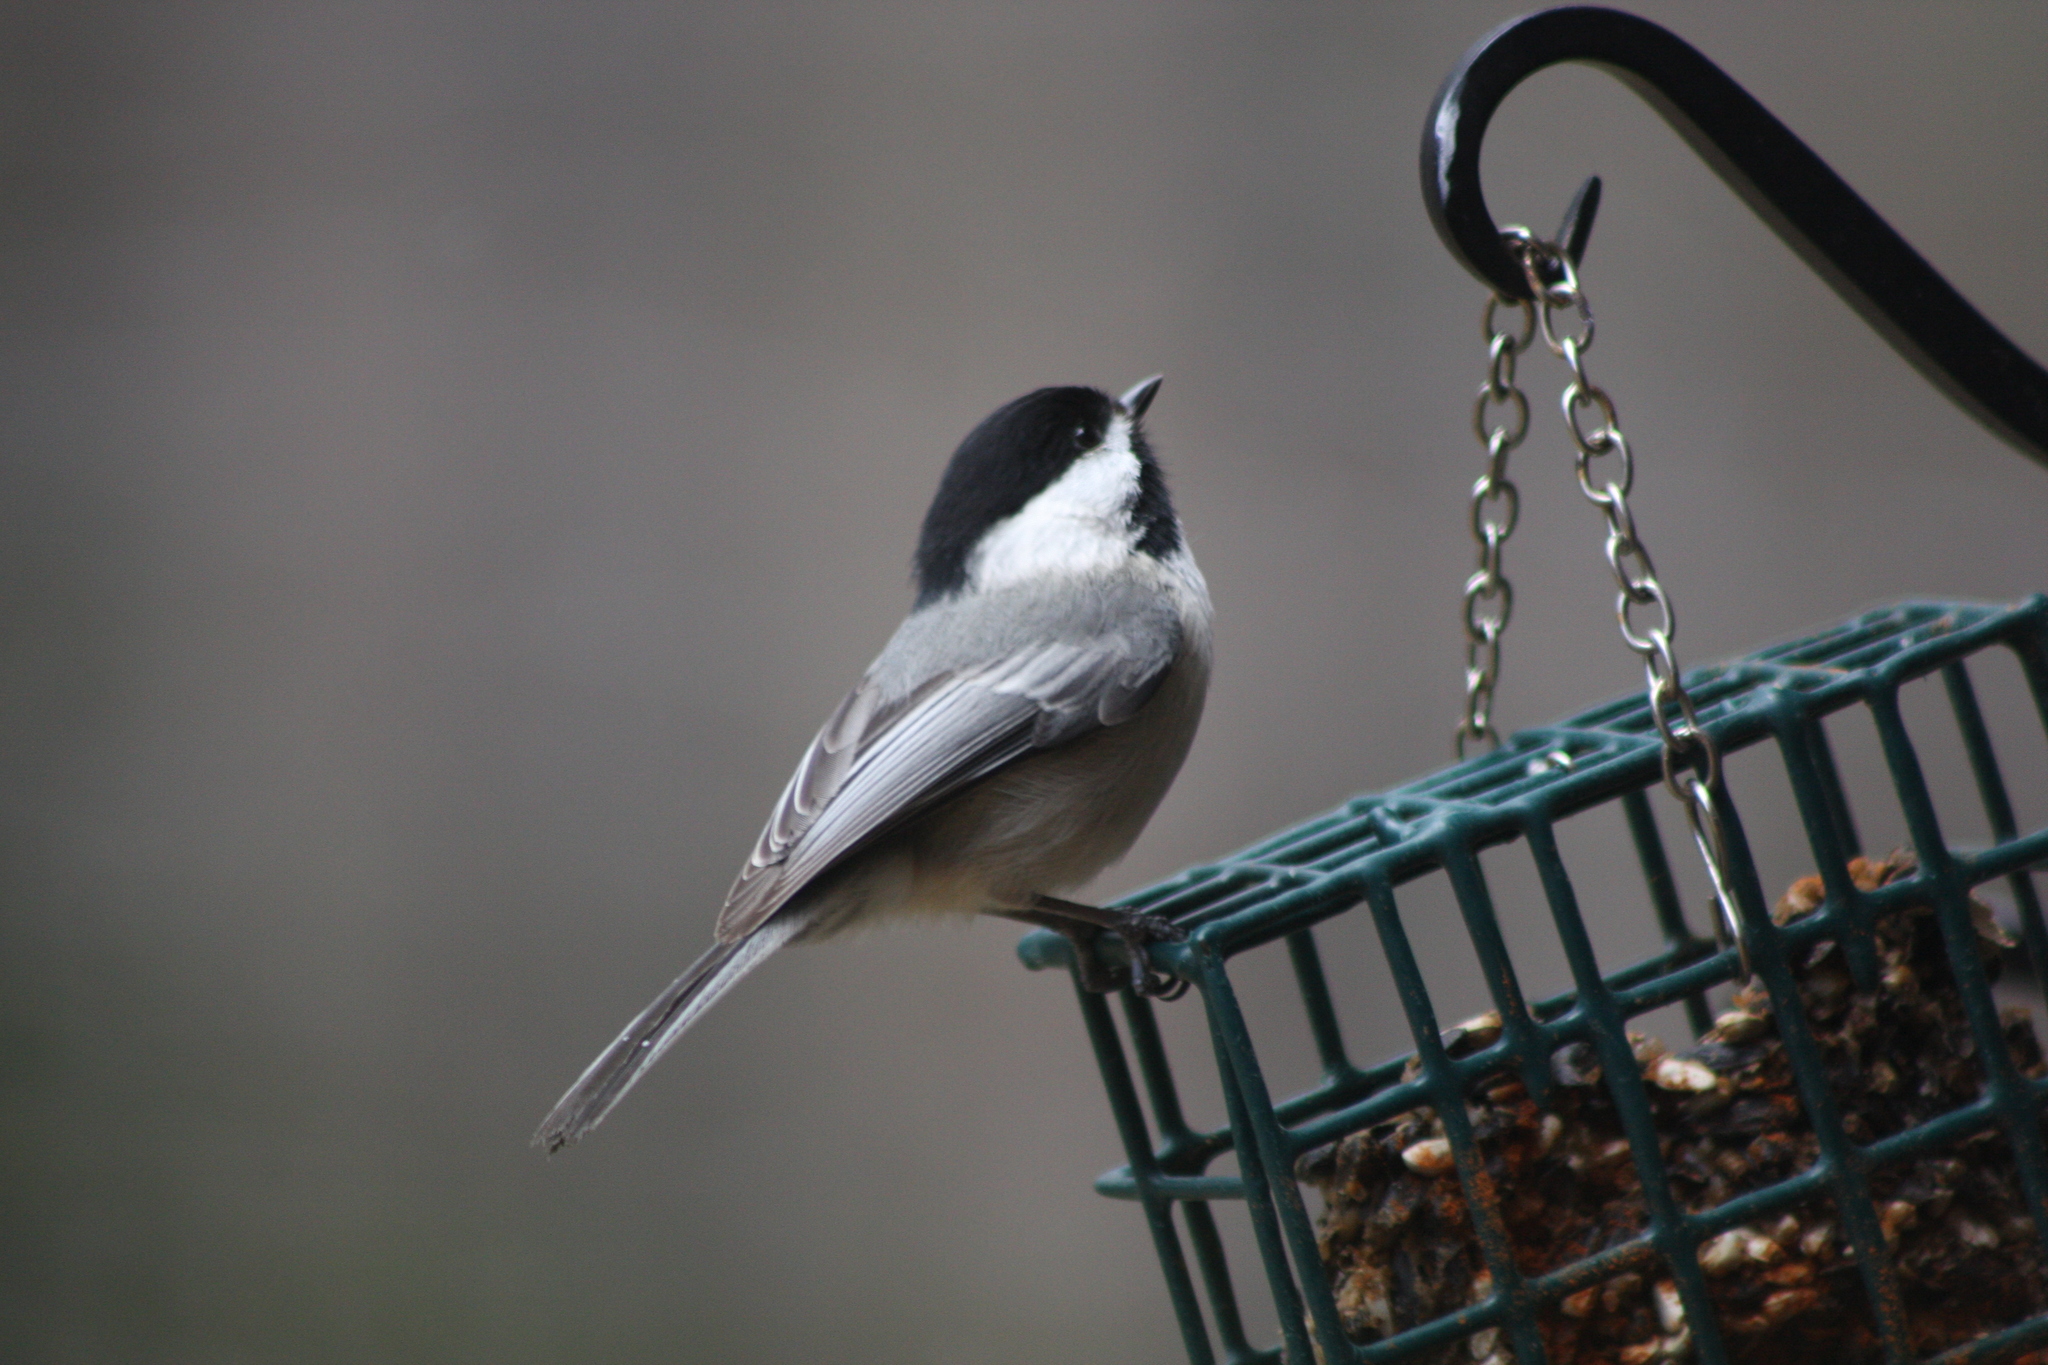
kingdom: Animalia
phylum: Chordata
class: Aves
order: Passeriformes
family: Paridae
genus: Poecile
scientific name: Poecile atricapillus
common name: Black-capped chickadee
